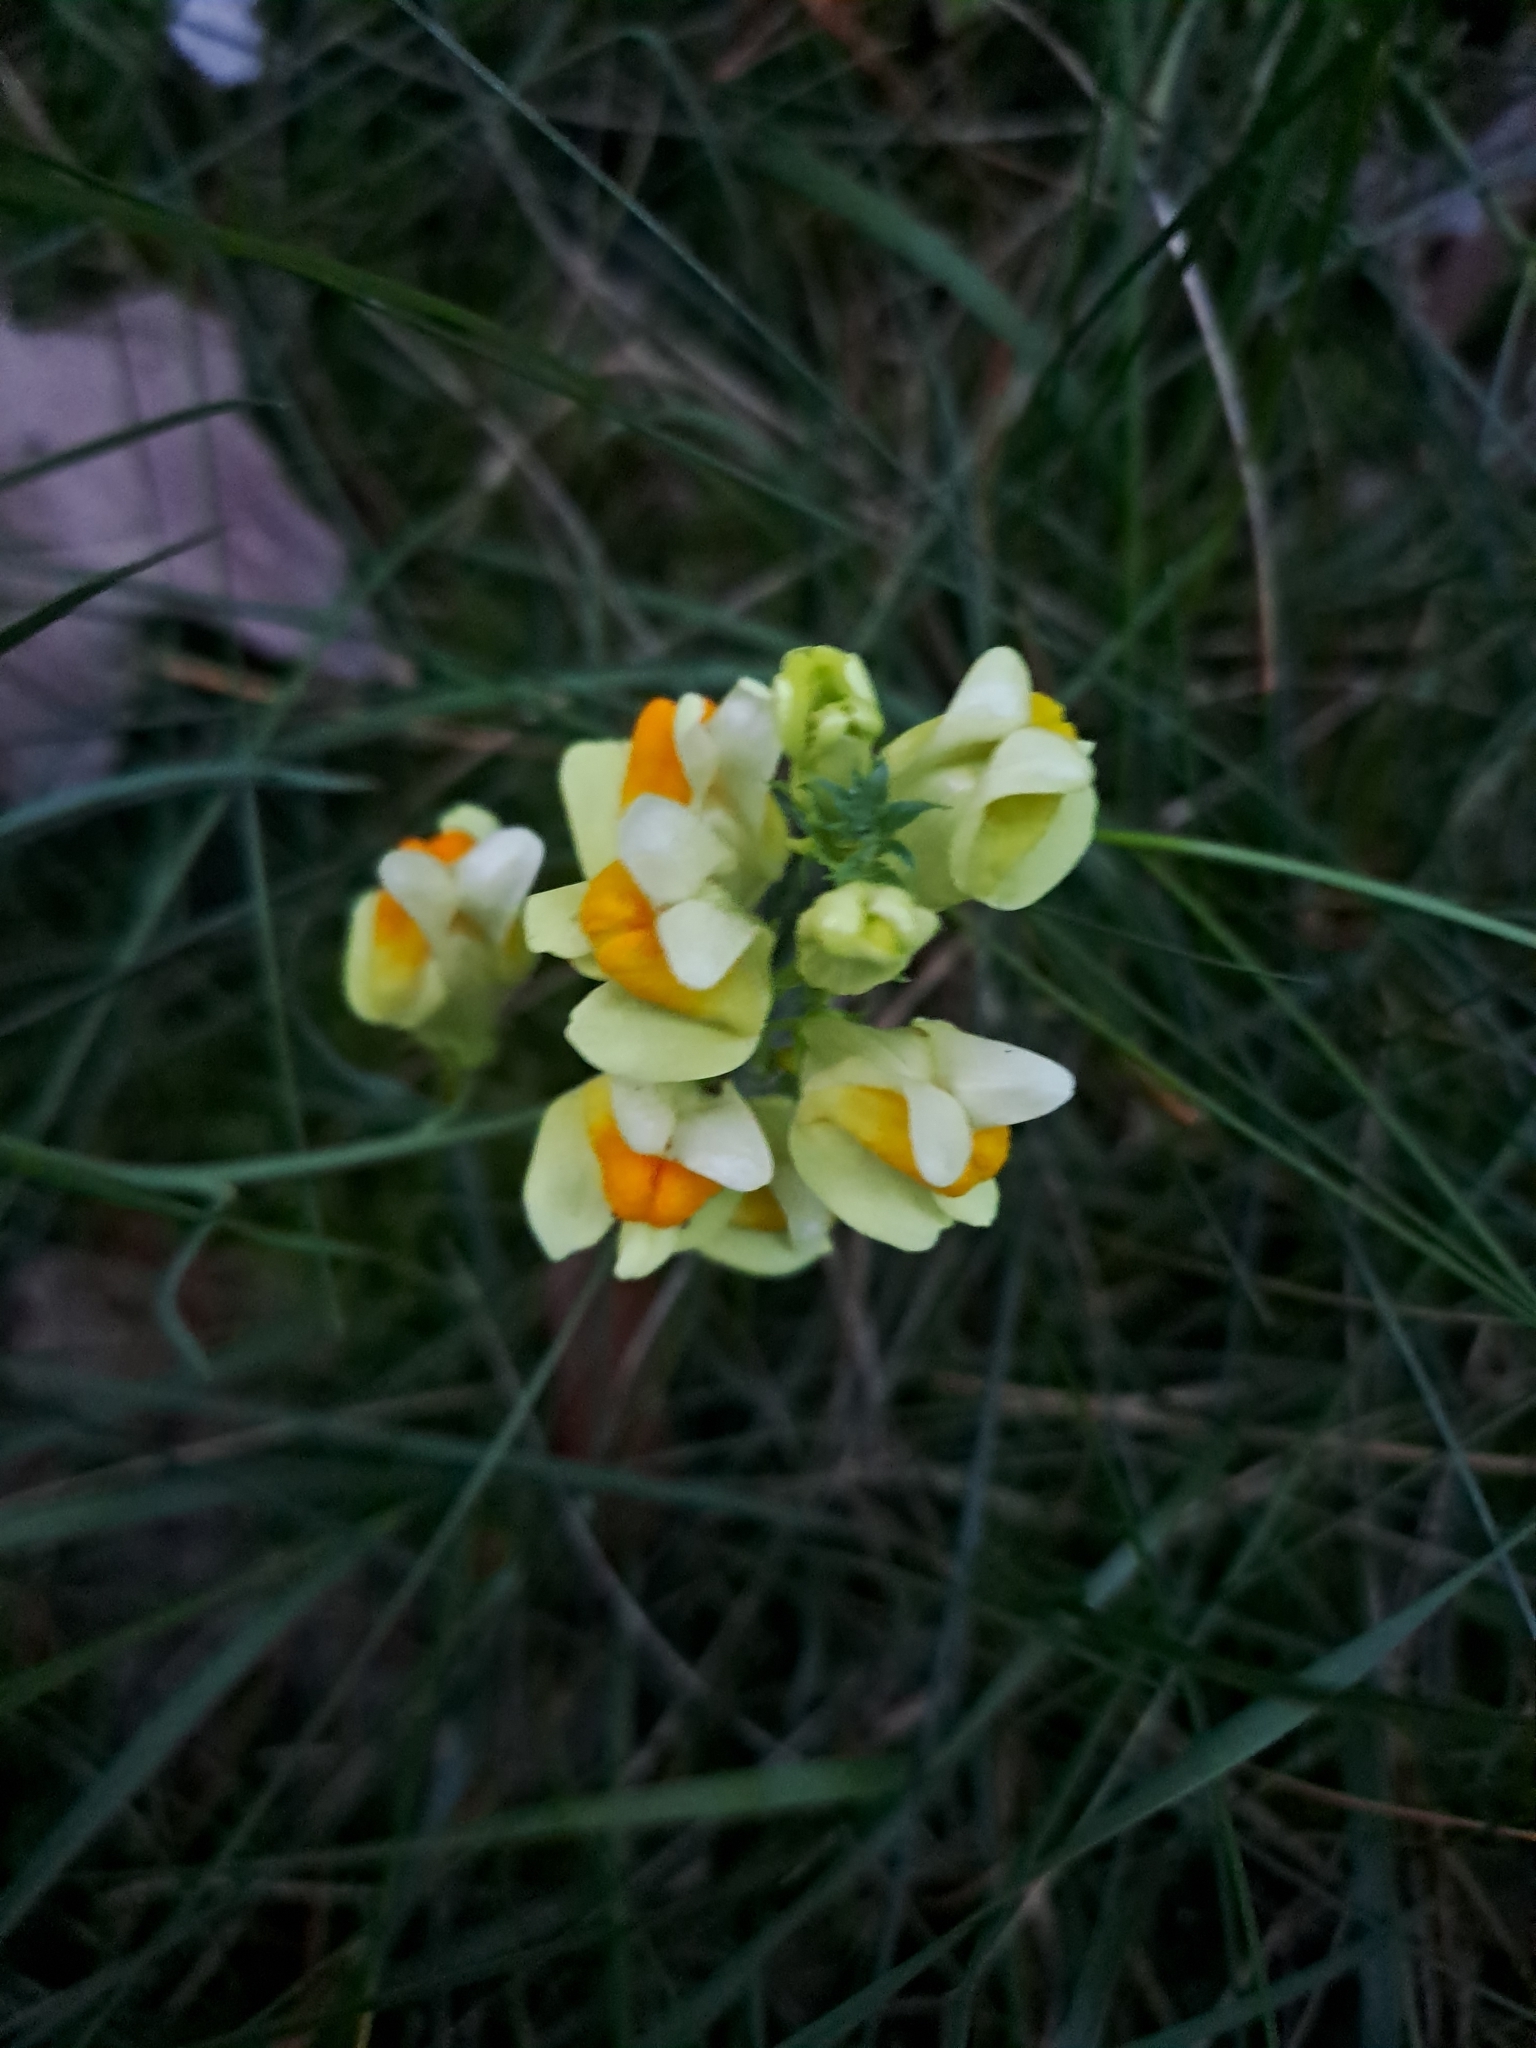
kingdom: Plantae
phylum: Tracheophyta
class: Magnoliopsida
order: Lamiales
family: Plantaginaceae
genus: Linaria
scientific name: Linaria vulgaris
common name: Butter and eggs
